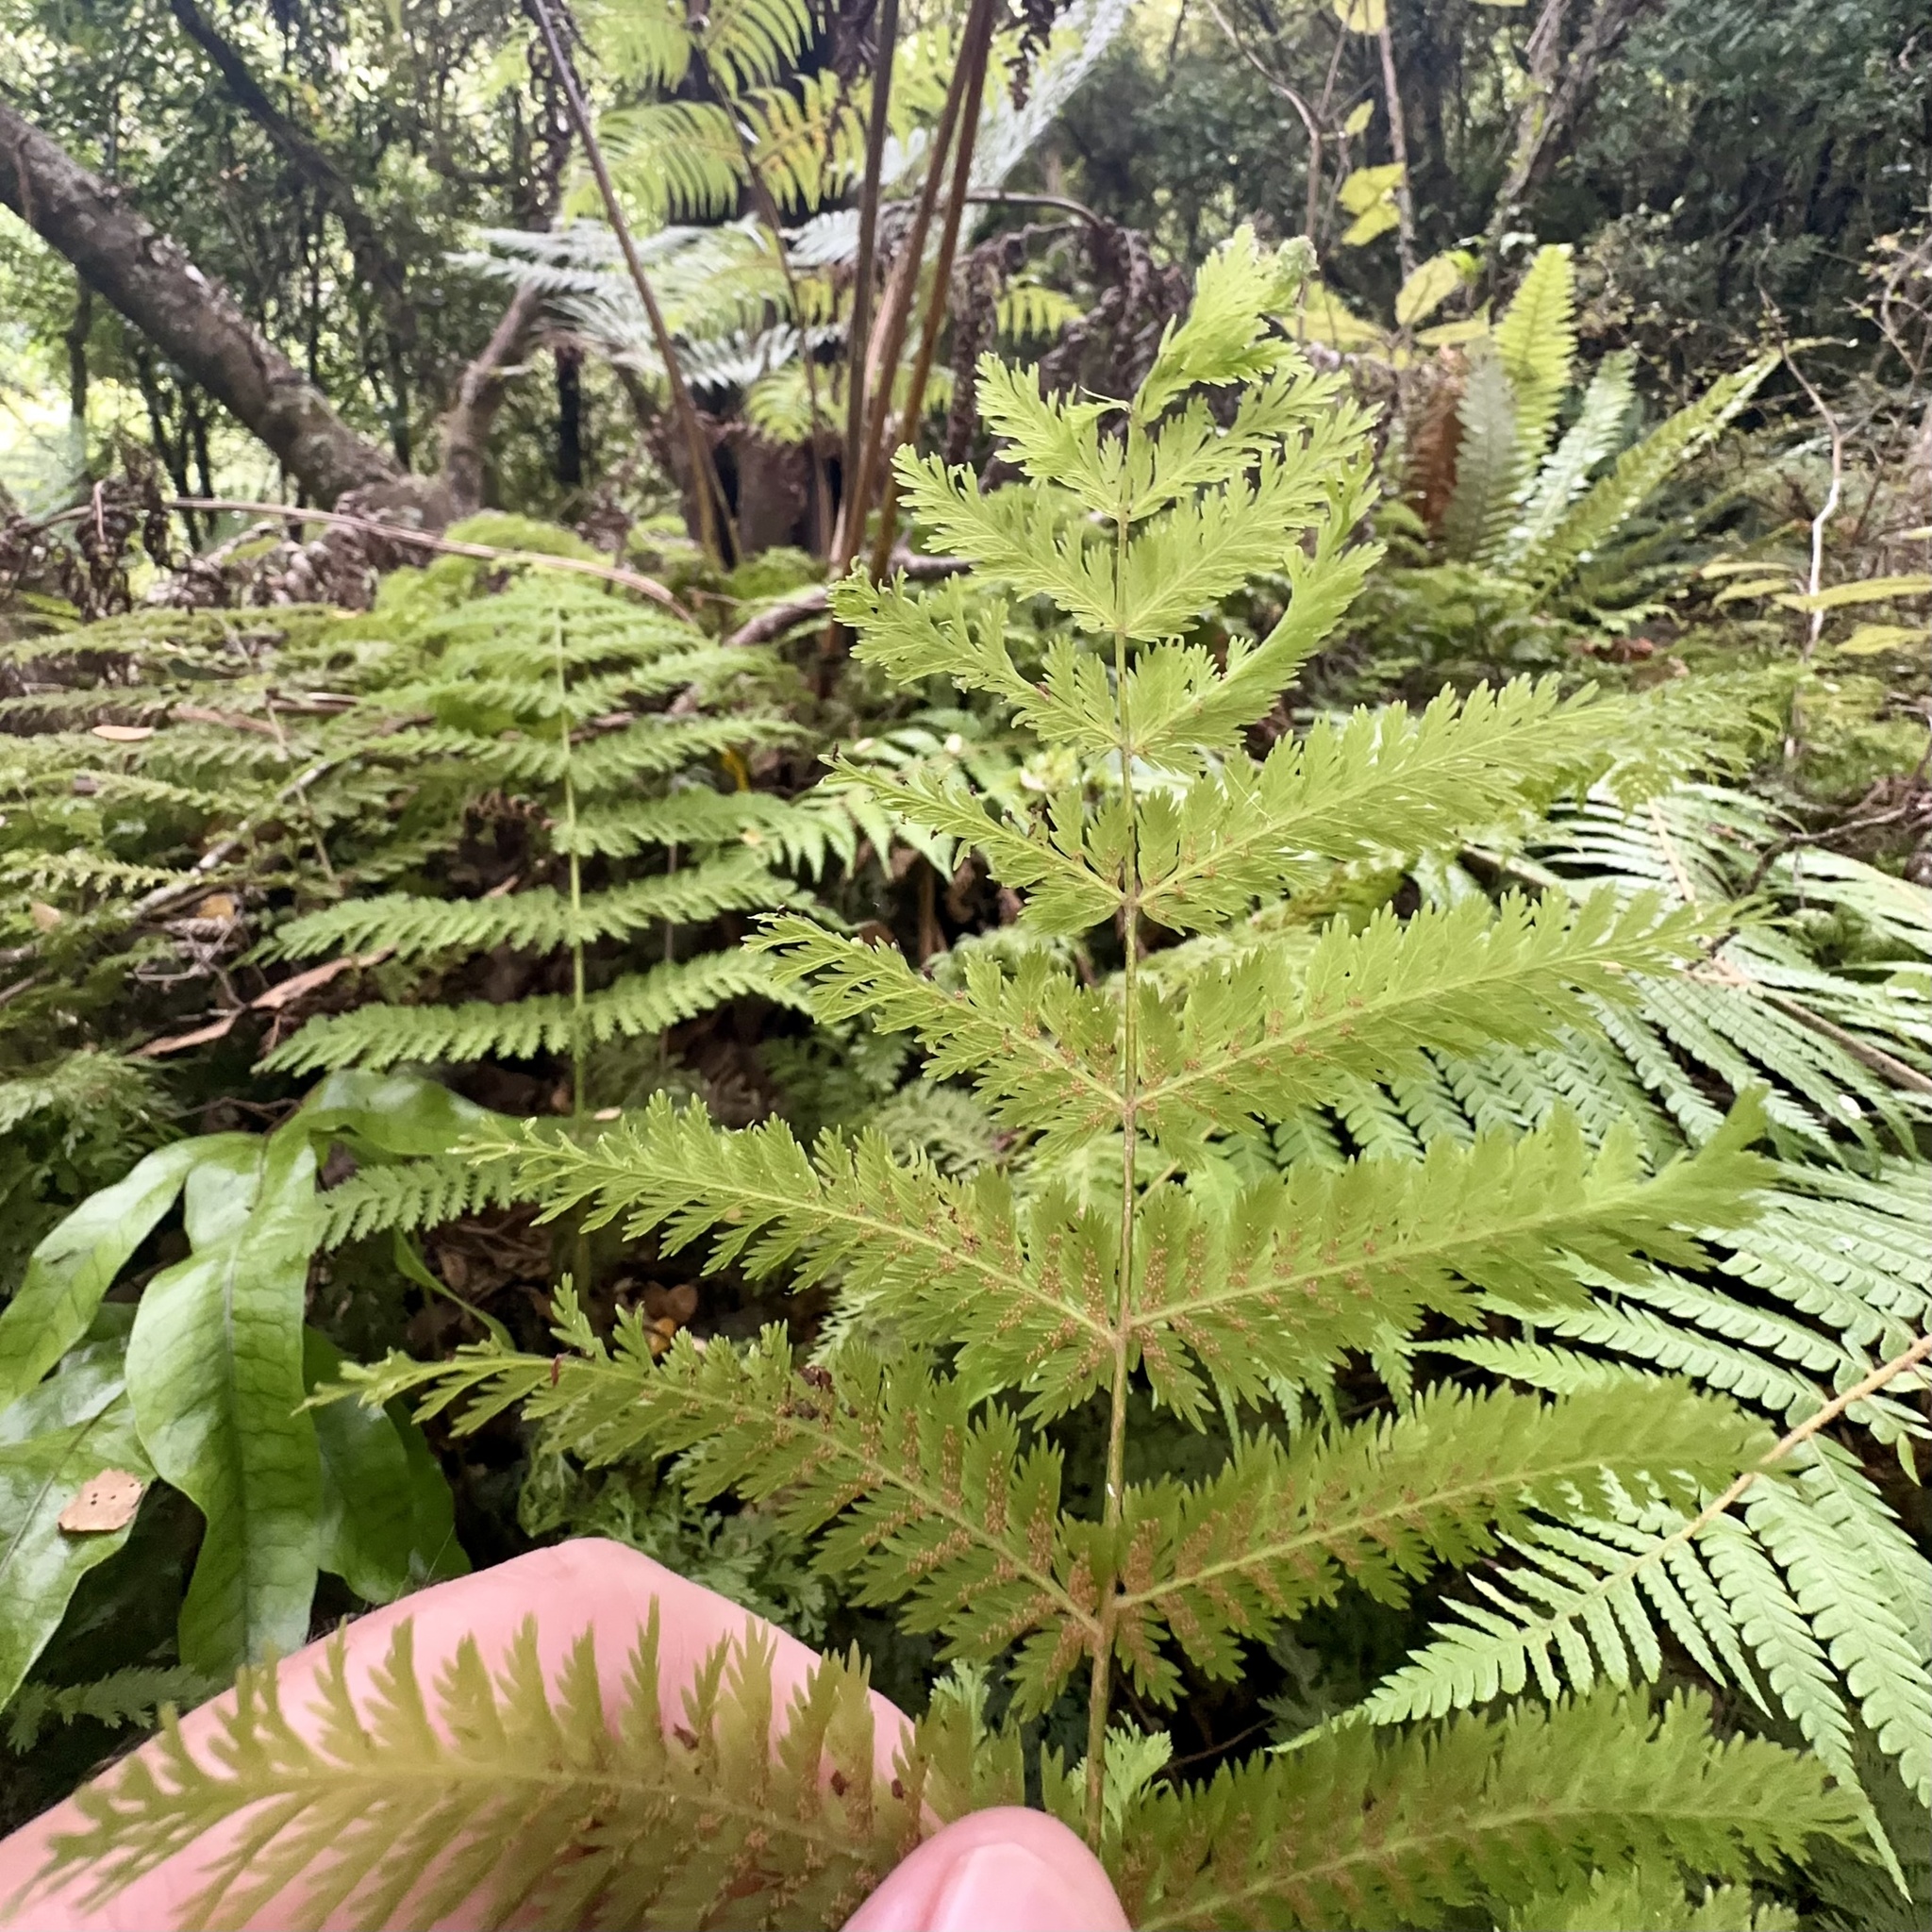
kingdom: Plantae
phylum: Tracheophyta
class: Polypodiopsida
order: Osmundales
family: Osmundaceae
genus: Leptopteris
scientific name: Leptopteris hymenophylloides
